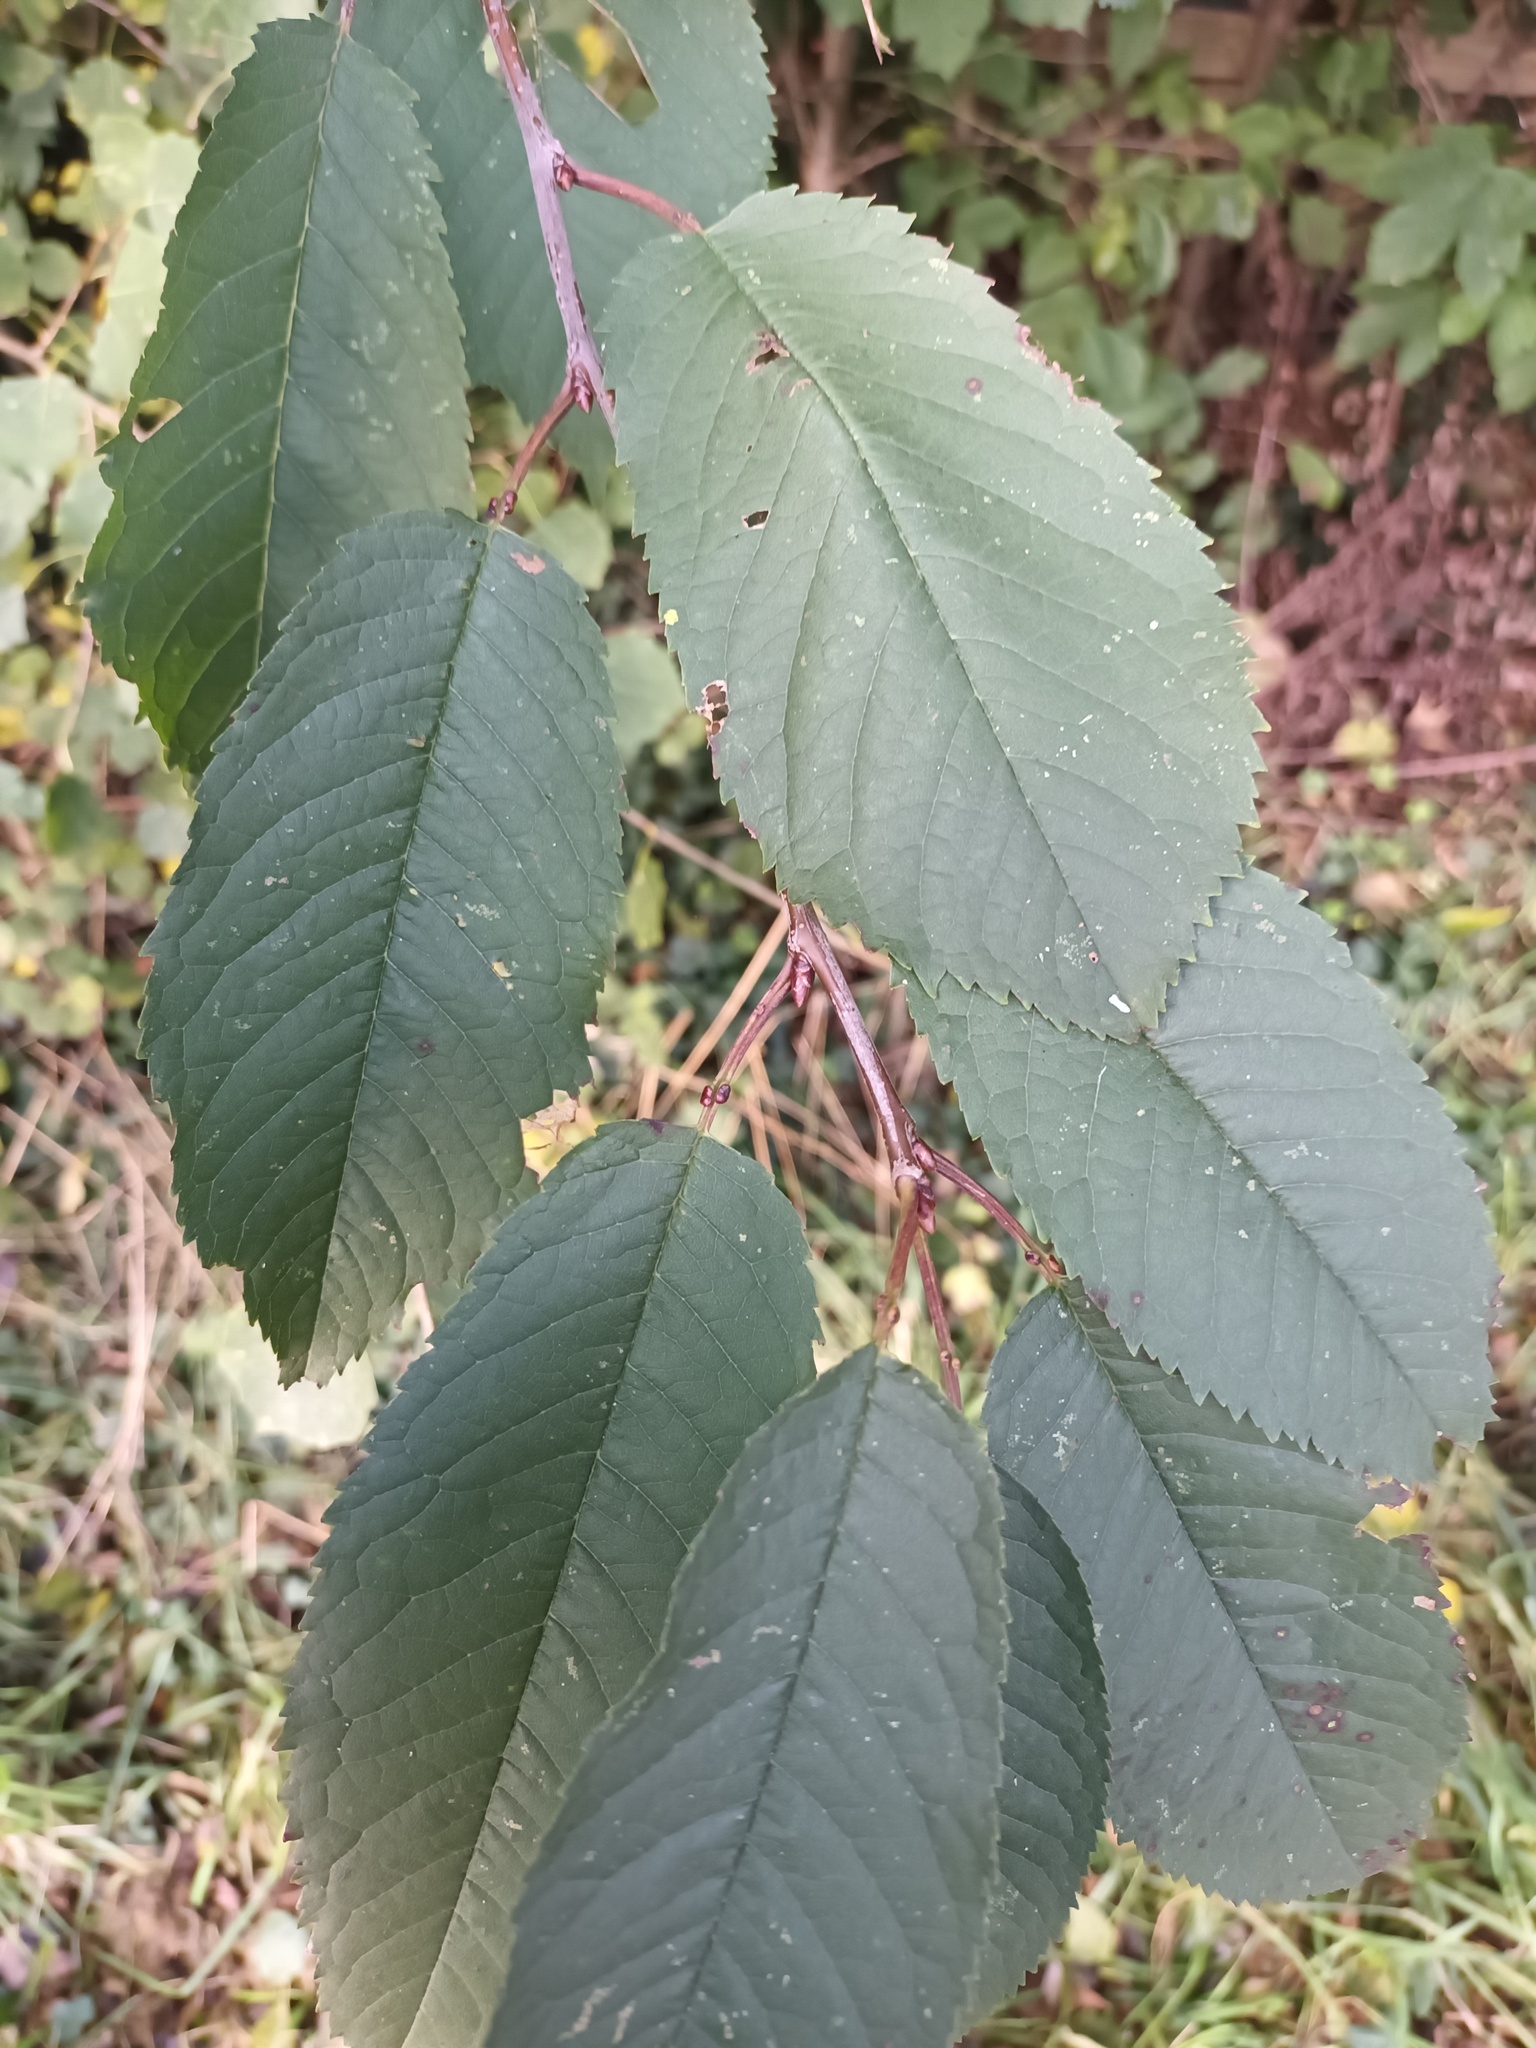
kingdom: Plantae
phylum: Tracheophyta
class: Magnoliopsida
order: Rosales
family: Rosaceae
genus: Prunus
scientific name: Prunus avium
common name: Sweet cherry
